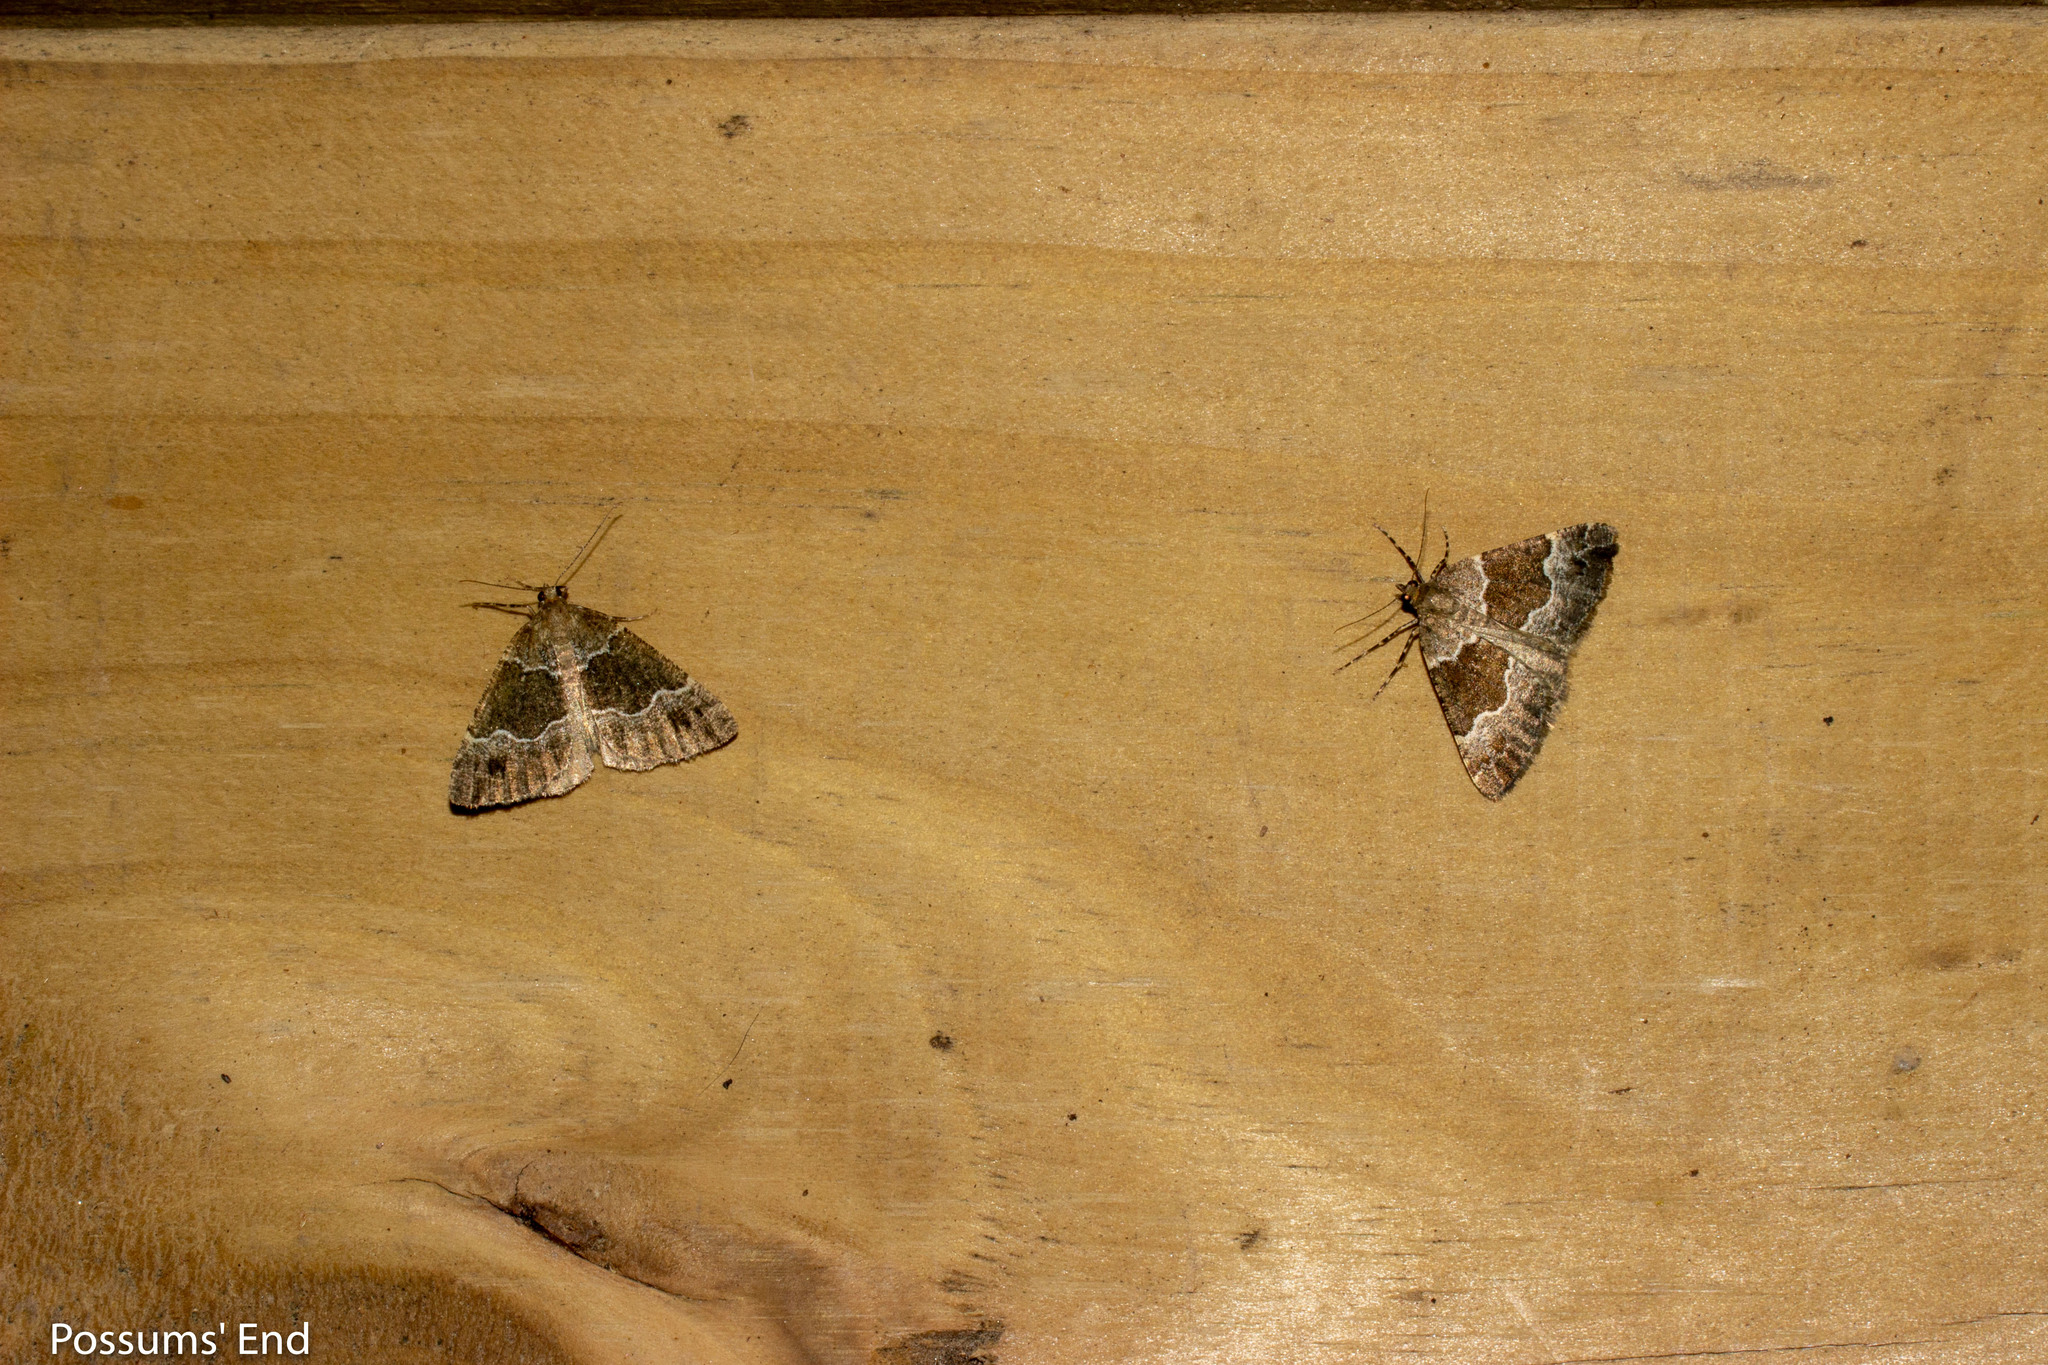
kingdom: Animalia
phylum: Arthropoda
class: Insecta
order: Lepidoptera
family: Geometridae
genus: Pseudocoremia
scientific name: Pseudocoremia
